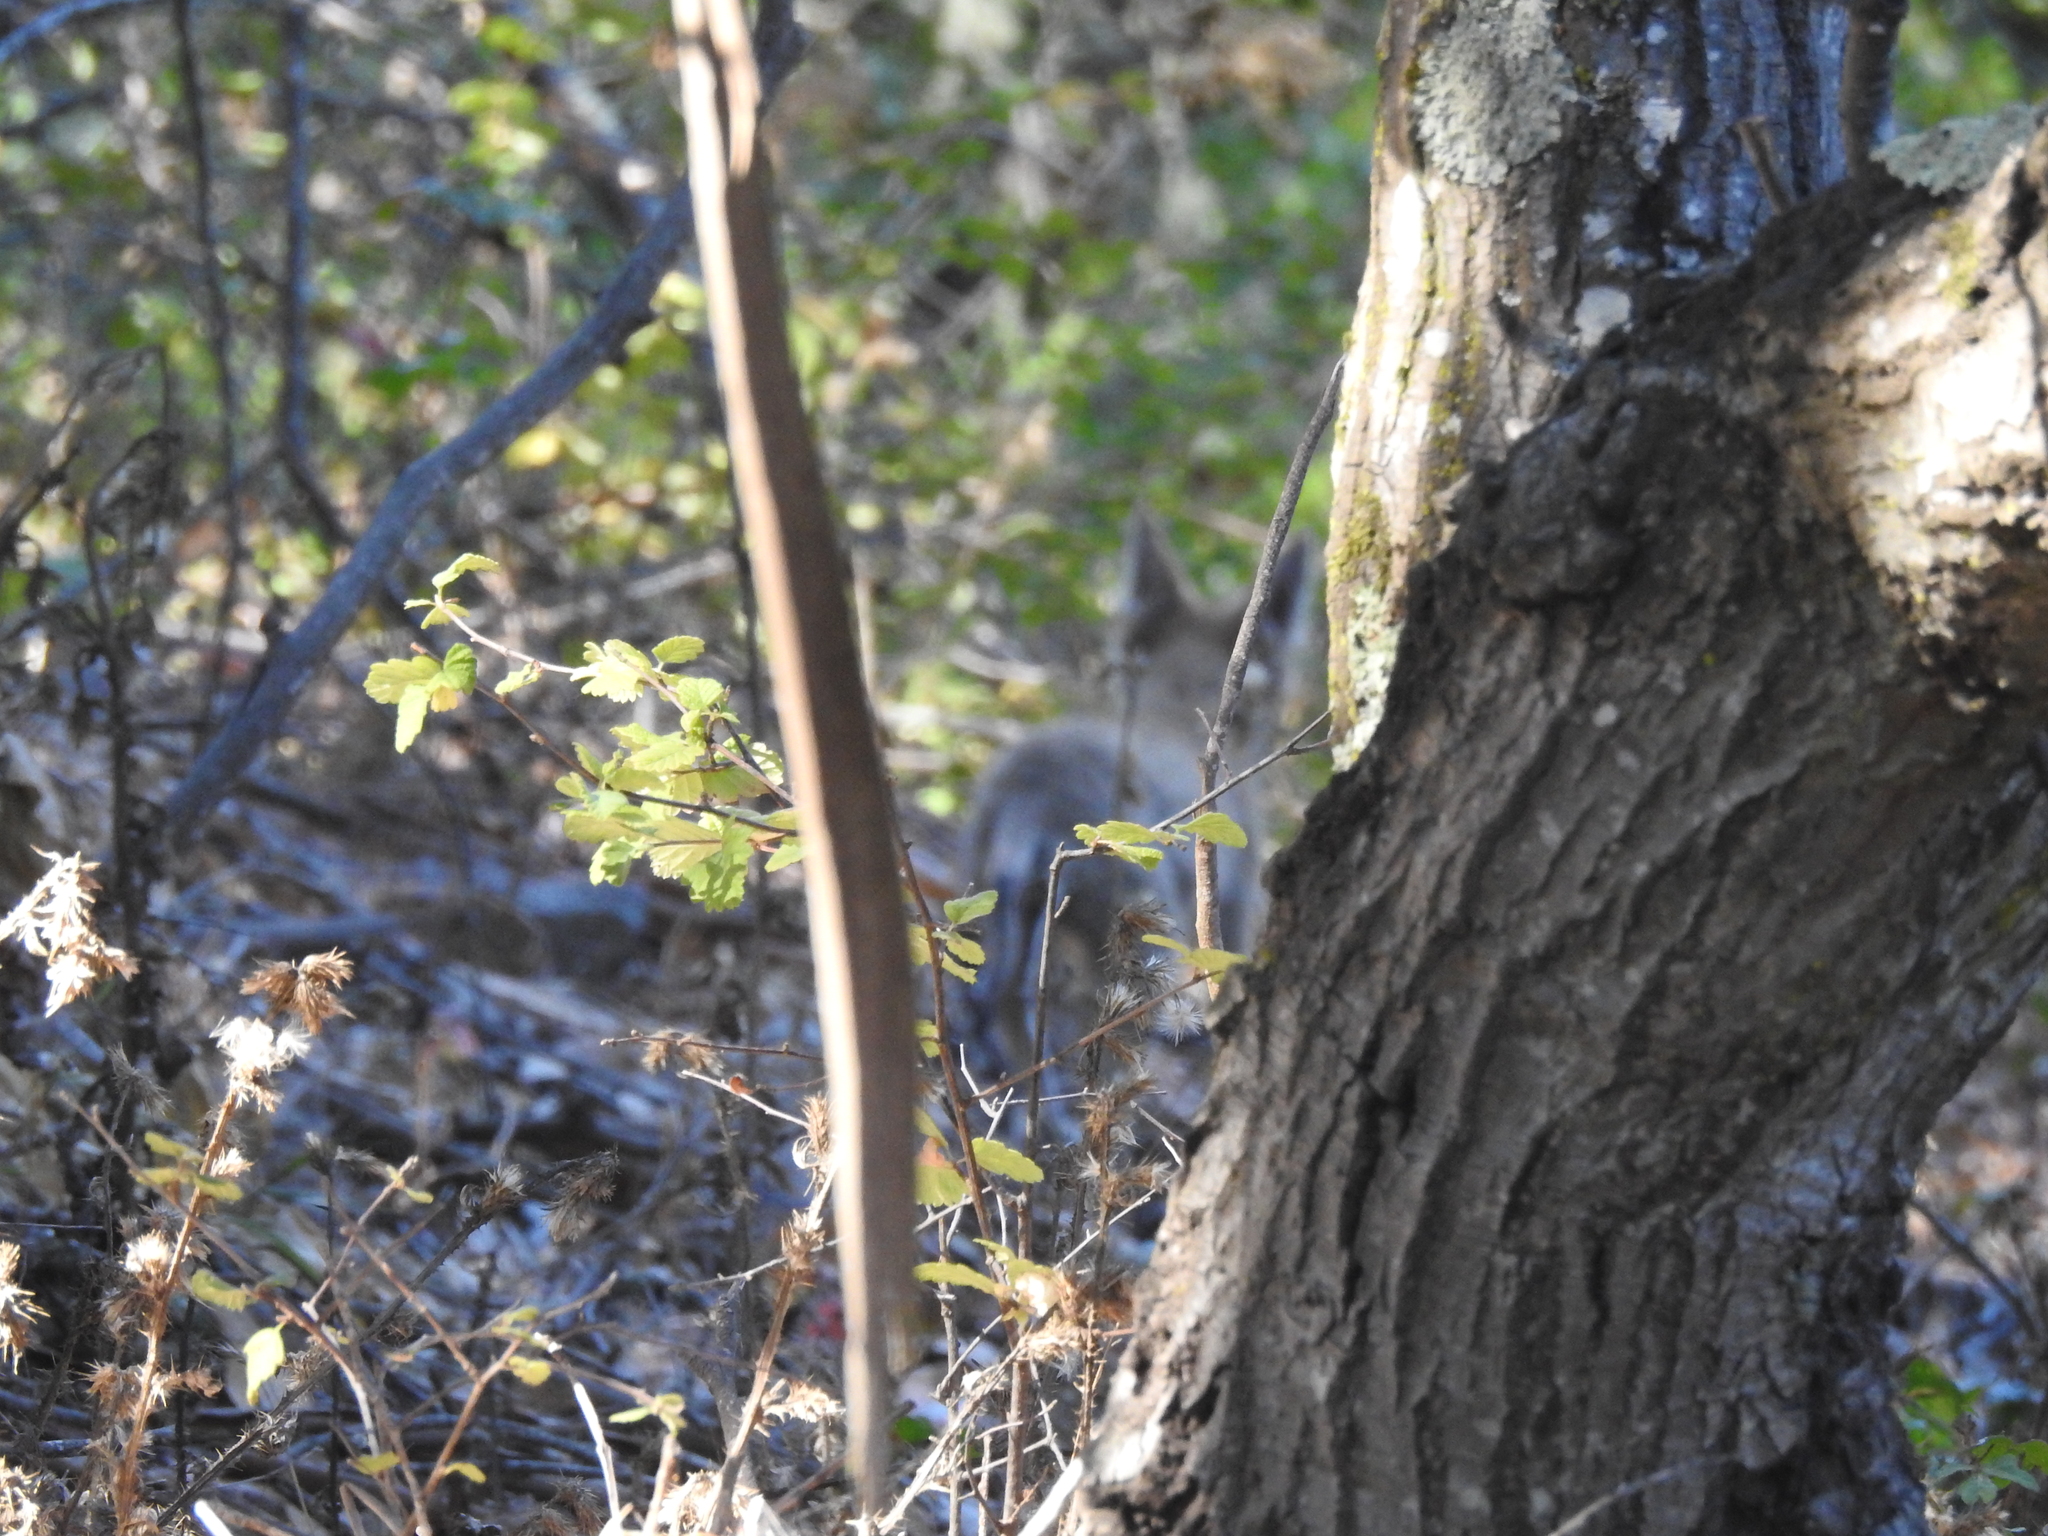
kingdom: Animalia
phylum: Chordata
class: Mammalia
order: Carnivora
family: Canidae
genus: Canis
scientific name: Canis latrans
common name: Coyote
